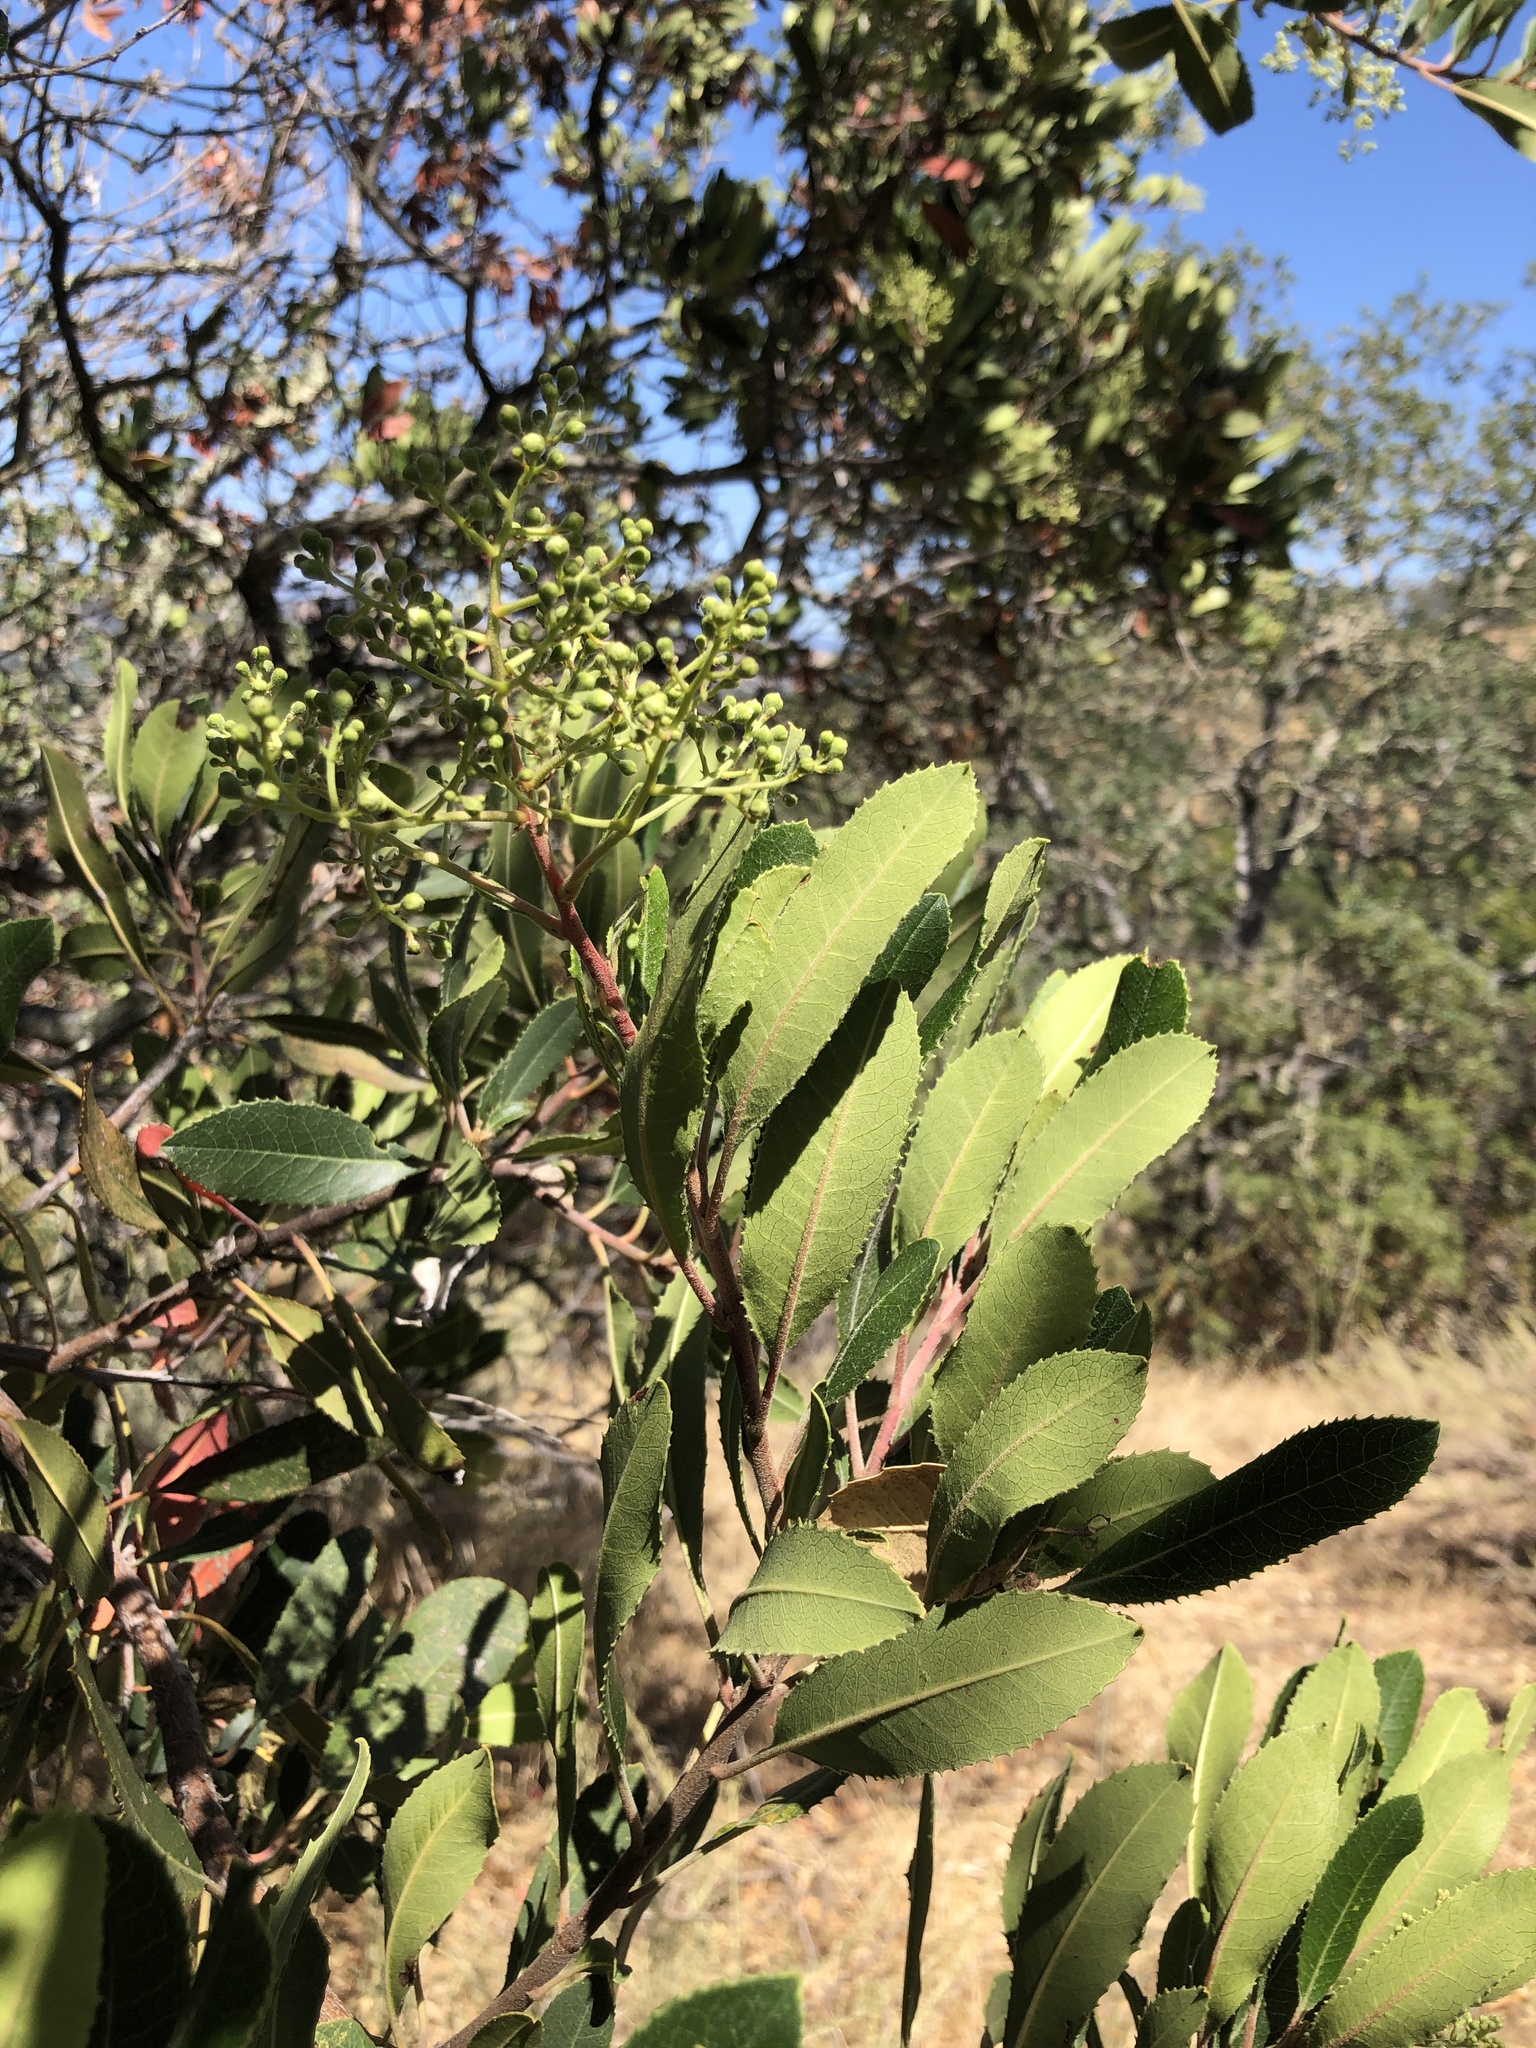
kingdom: Plantae
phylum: Tracheophyta
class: Magnoliopsida
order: Rosales
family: Rosaceae
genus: Heteromeles
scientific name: Heteromeles arbutifolia
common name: California-holly
